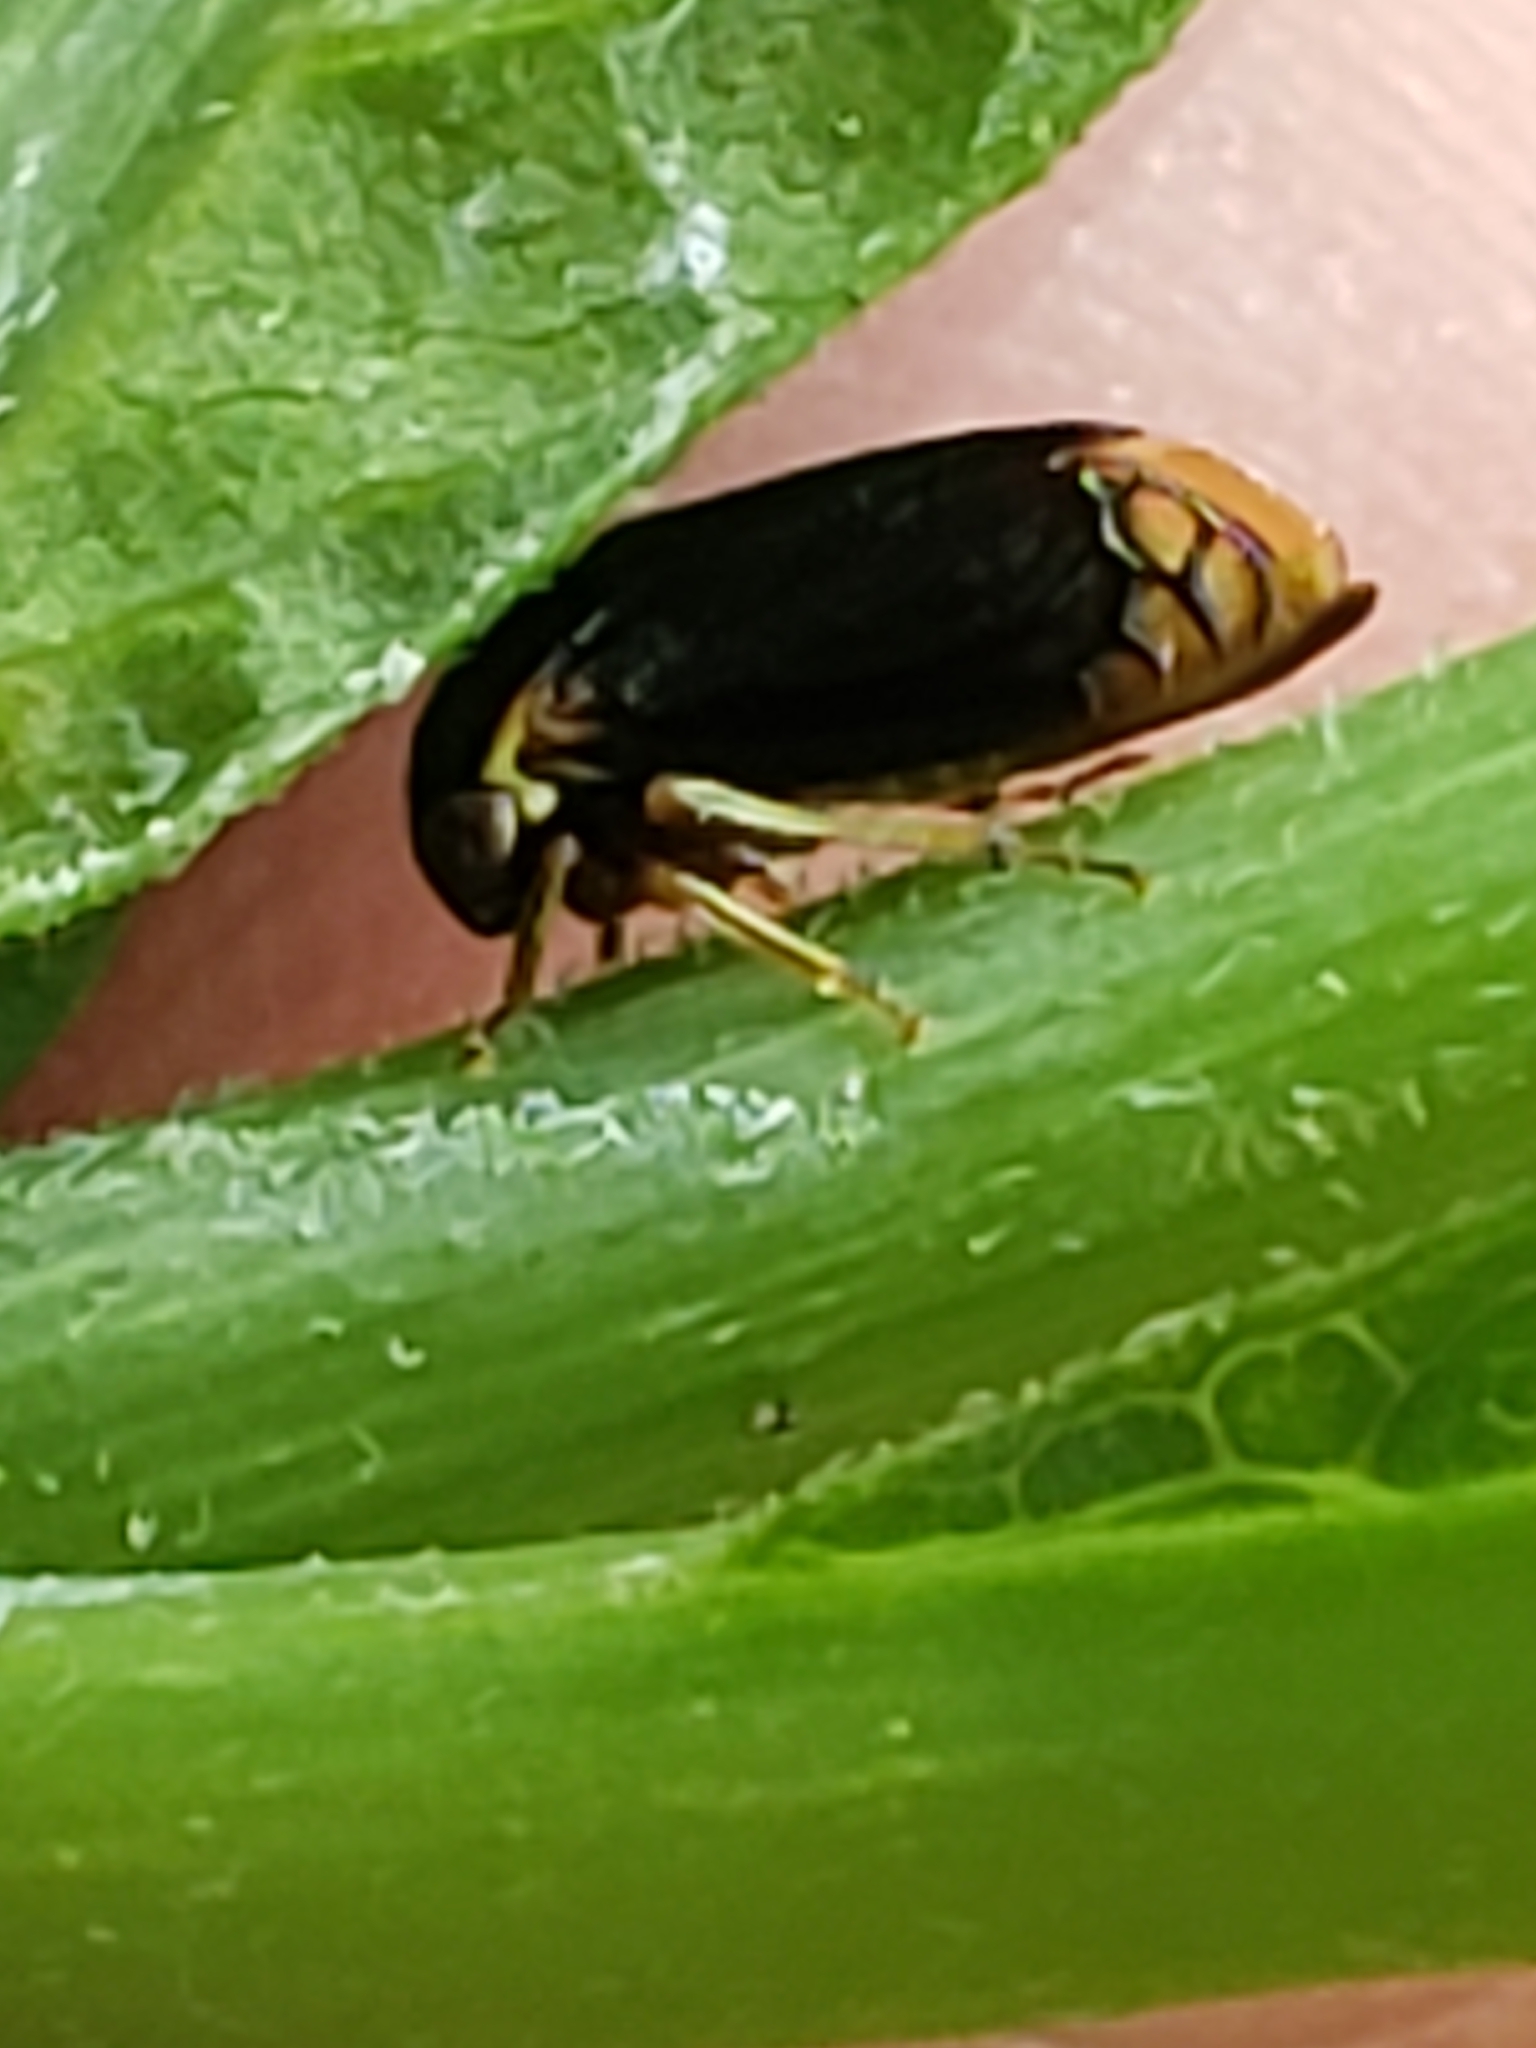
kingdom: Animalia
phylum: Arthropoda
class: Insecta
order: Hemiptera
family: Membracidae
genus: Acutalis
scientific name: Acutalis tartarea
